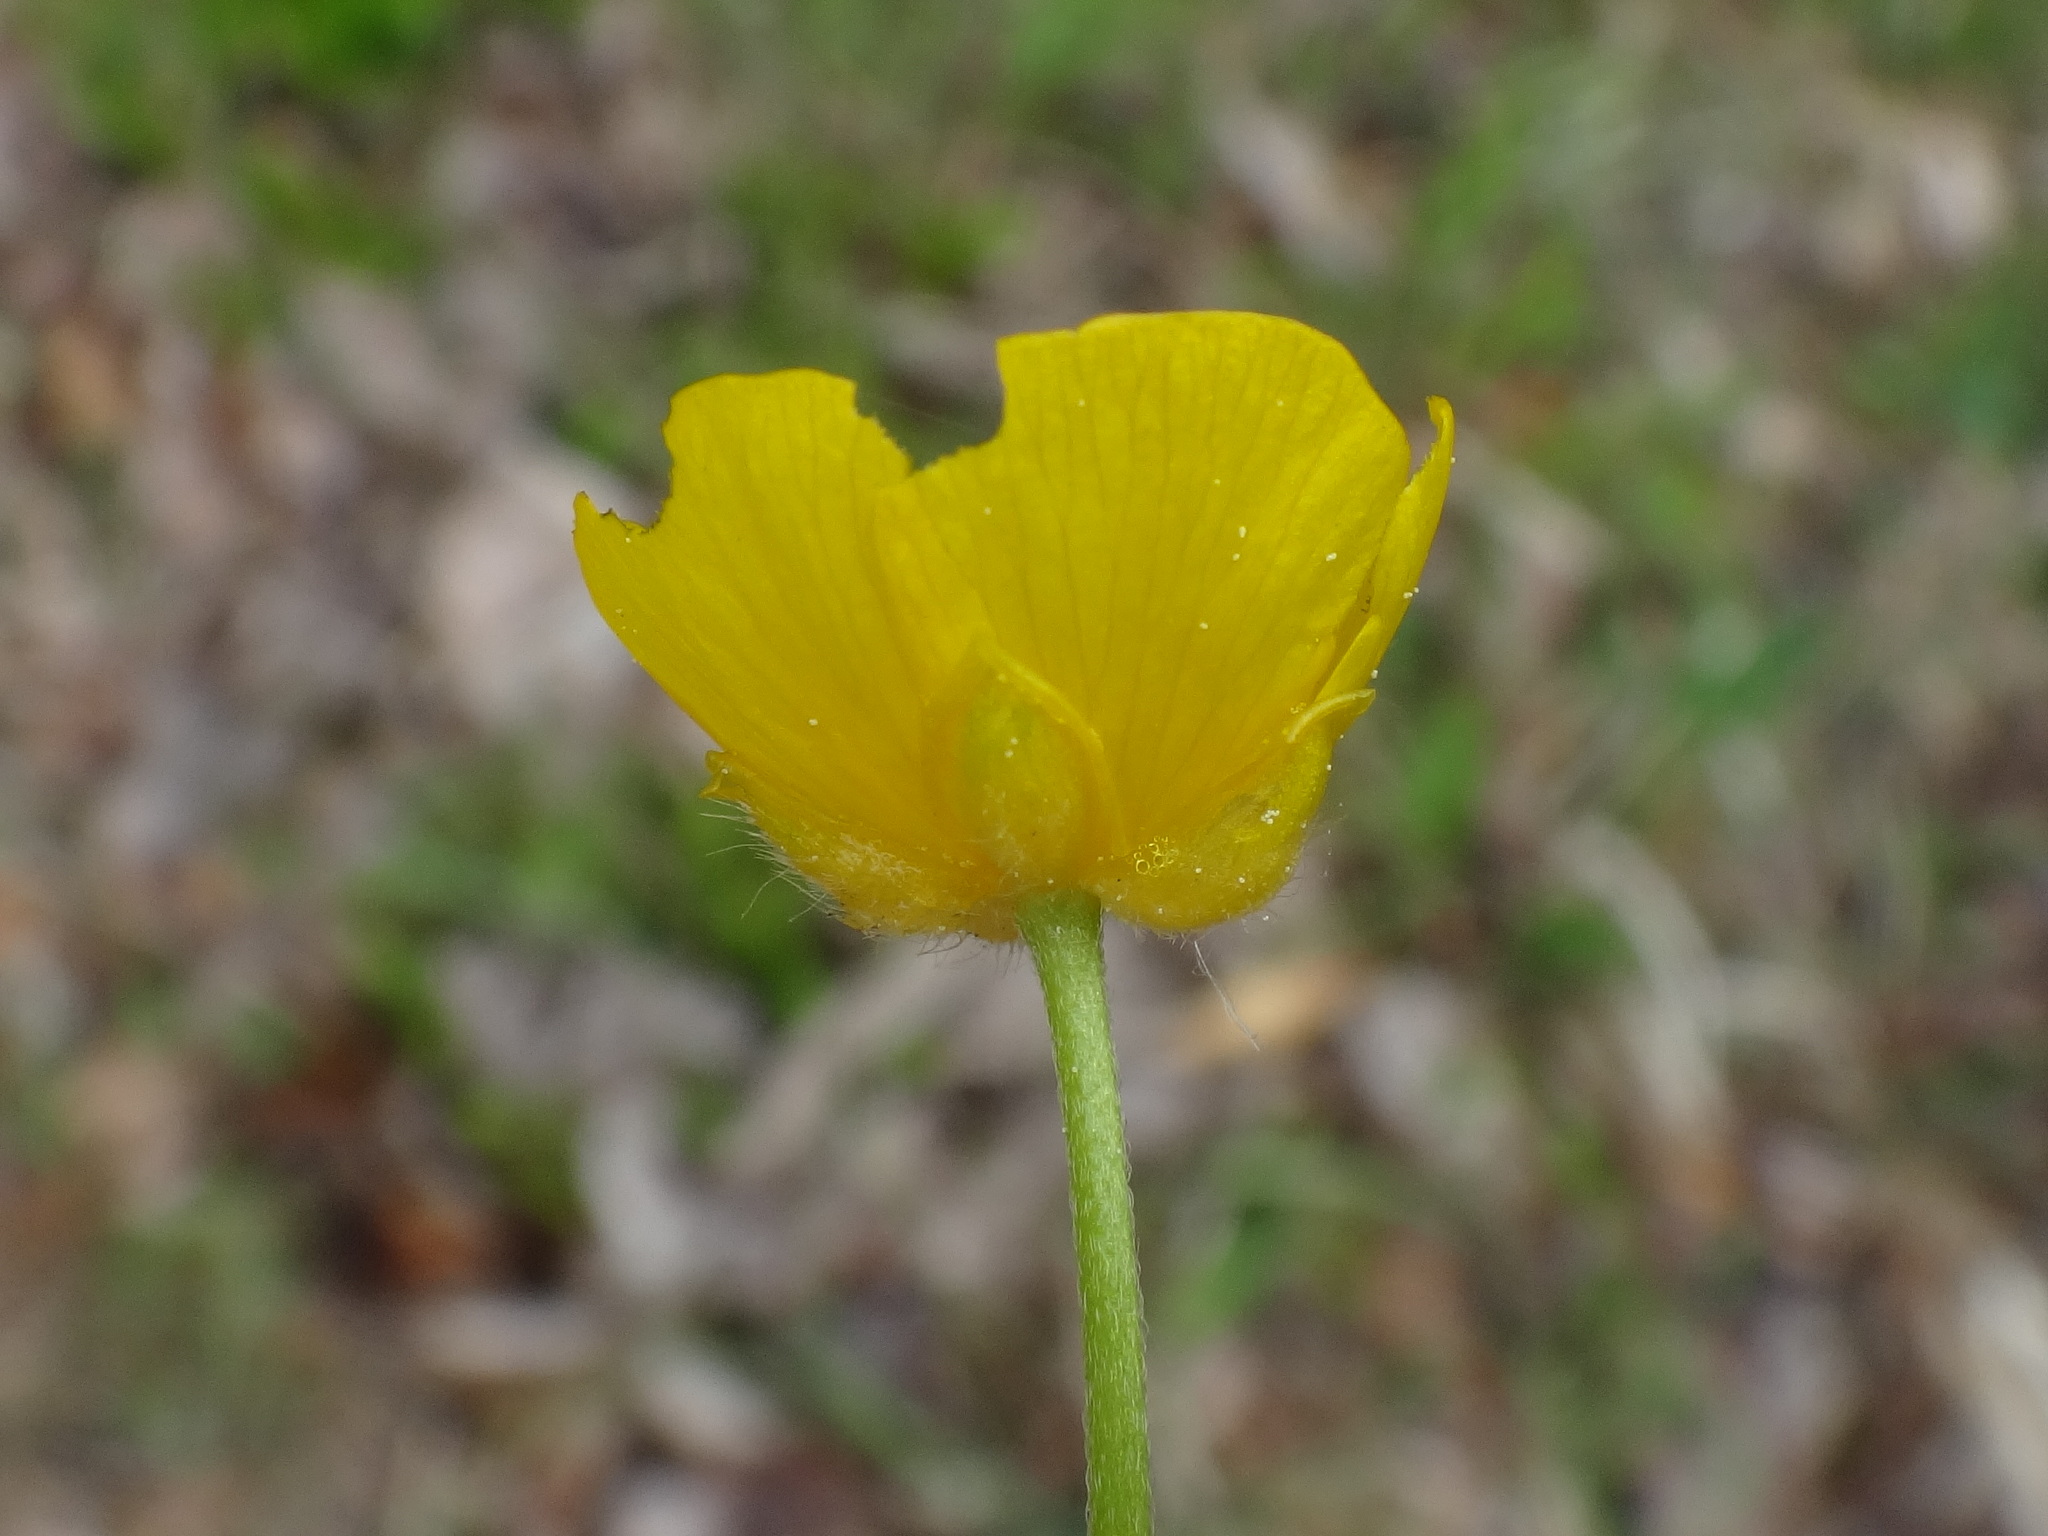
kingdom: Plantae
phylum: Tracheophyta
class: Magnoliopsida
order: Ranunculales
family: Ranunculaceae
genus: Ranunculus
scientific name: Ranunculus acris
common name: Meadow buttercup
